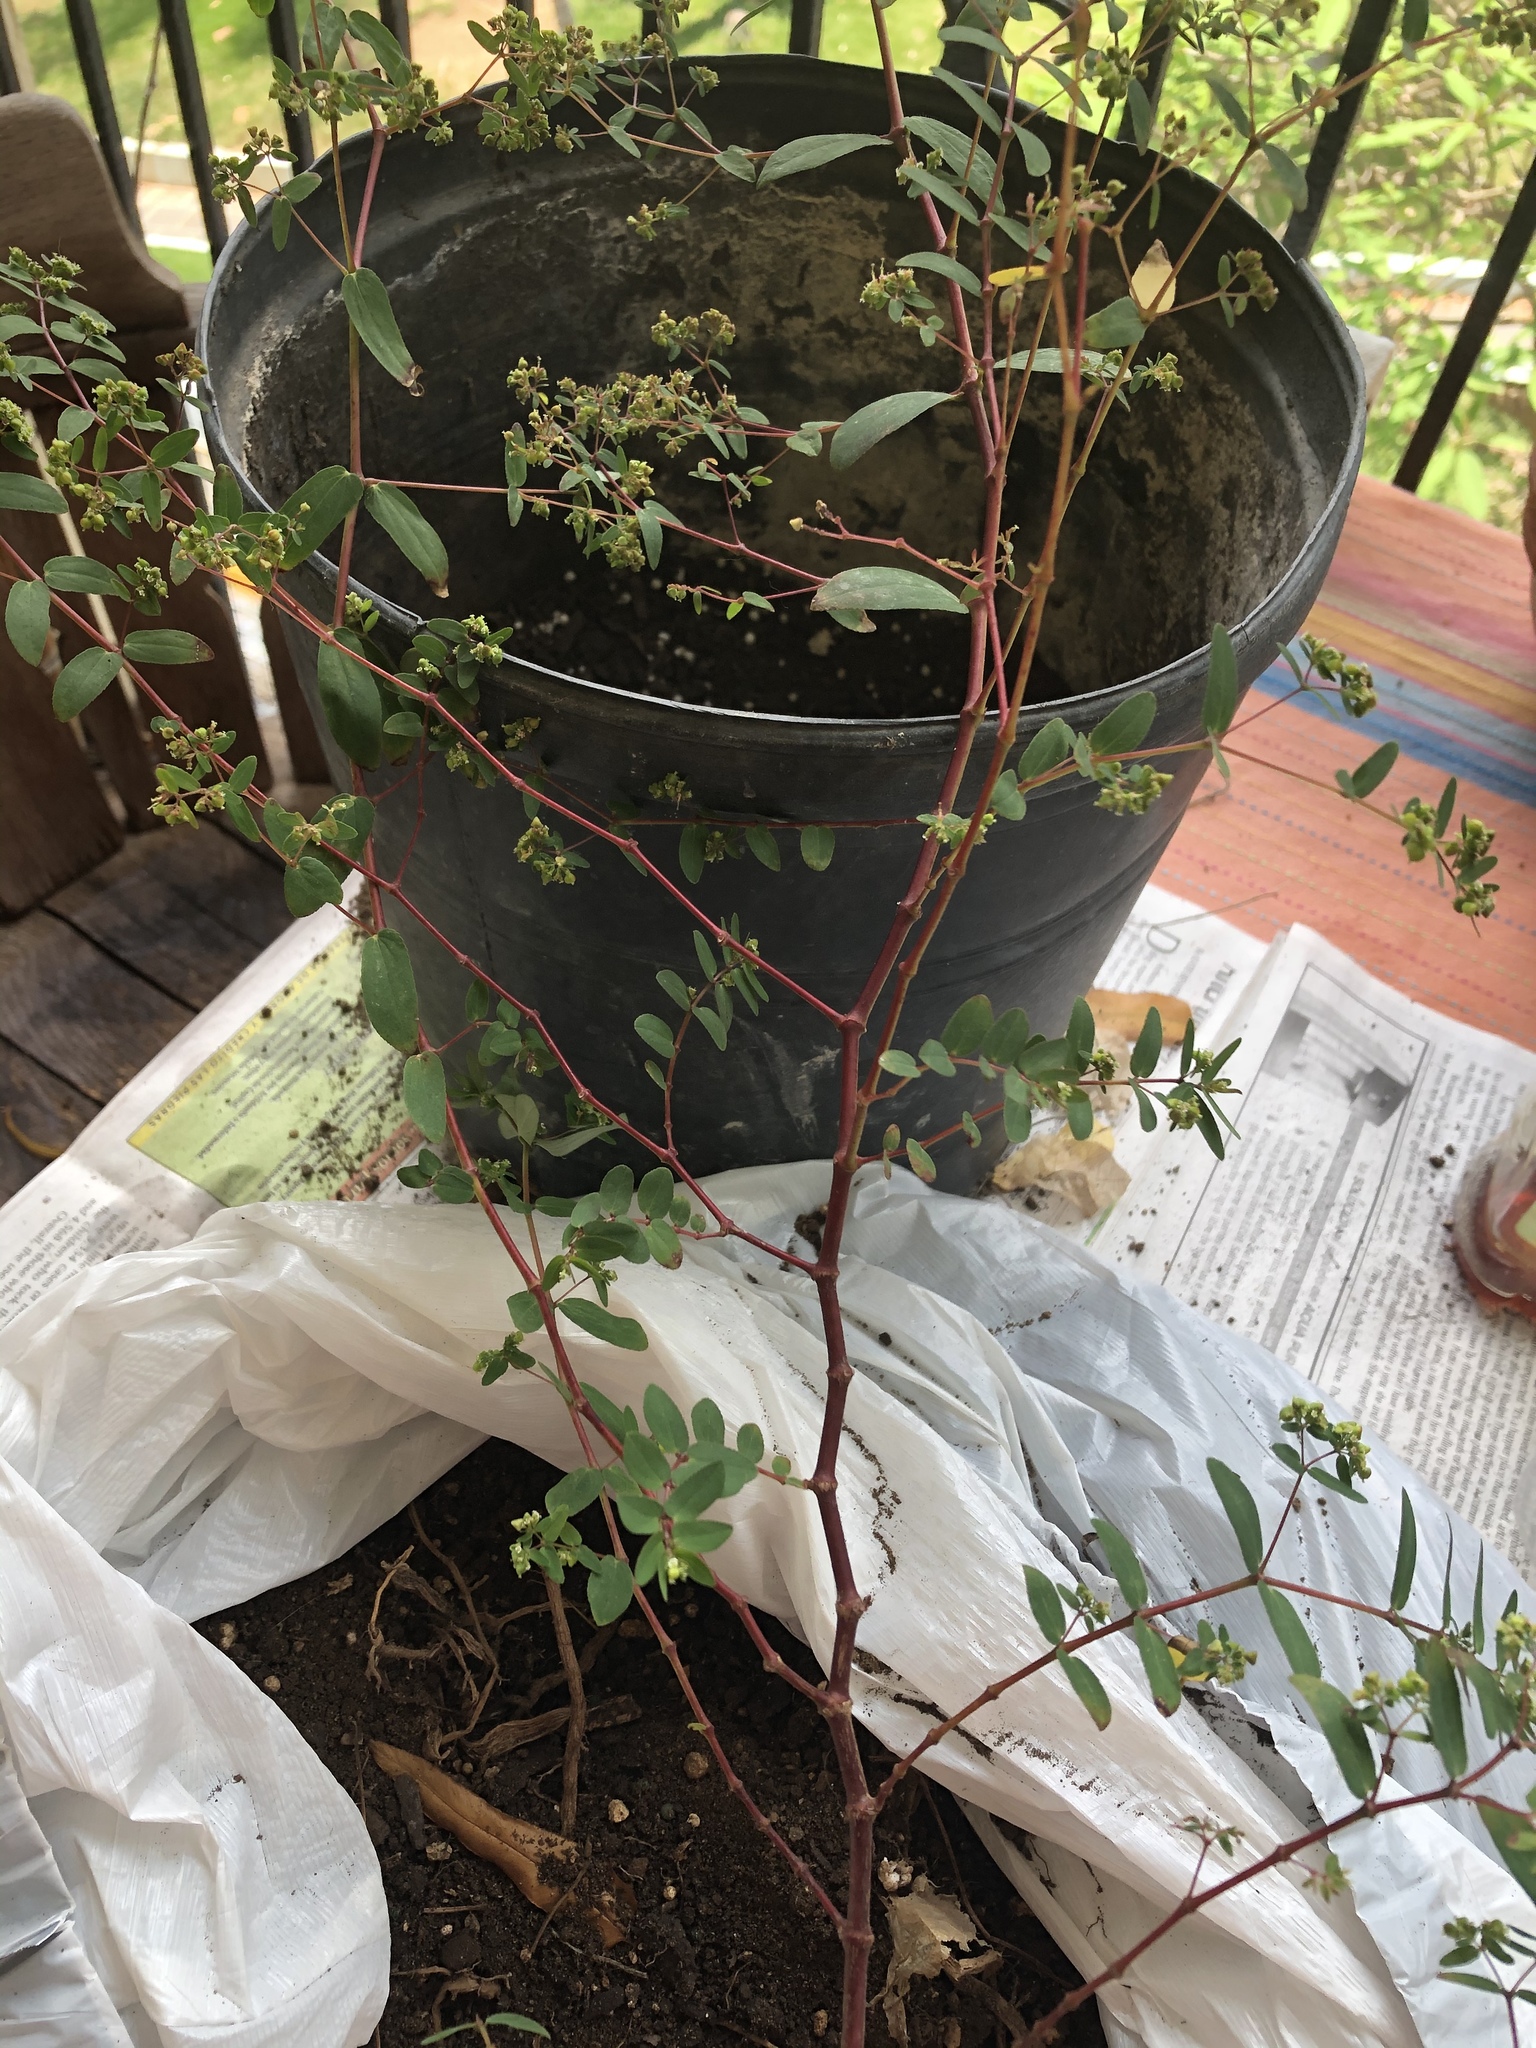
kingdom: Plantae
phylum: Tracheophyta
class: Magnoliopsida
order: Malpighiales
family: Euphorbiaceae
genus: Euphorbia
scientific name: Euphorbia hyssopifolia
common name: Hyssopleaf sandmat
